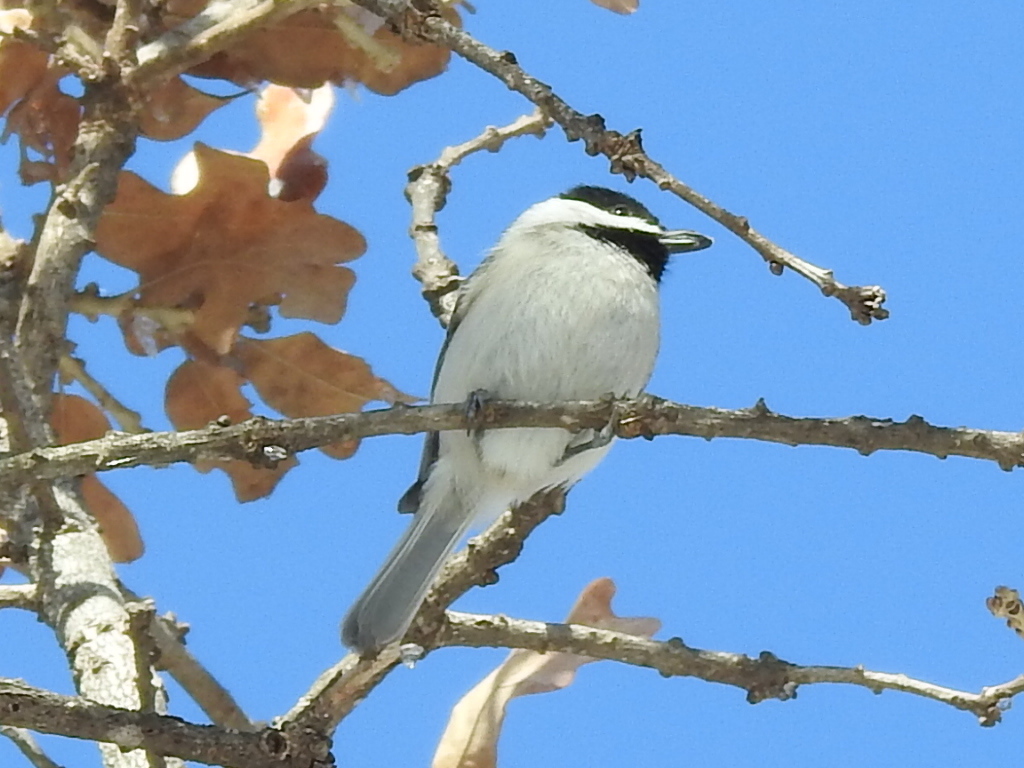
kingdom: Animalia
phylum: Chordata
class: Aves
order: Passeriformes
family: Paridae
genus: Poecile
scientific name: Poecile carolinensis
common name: Carolina chickadee
